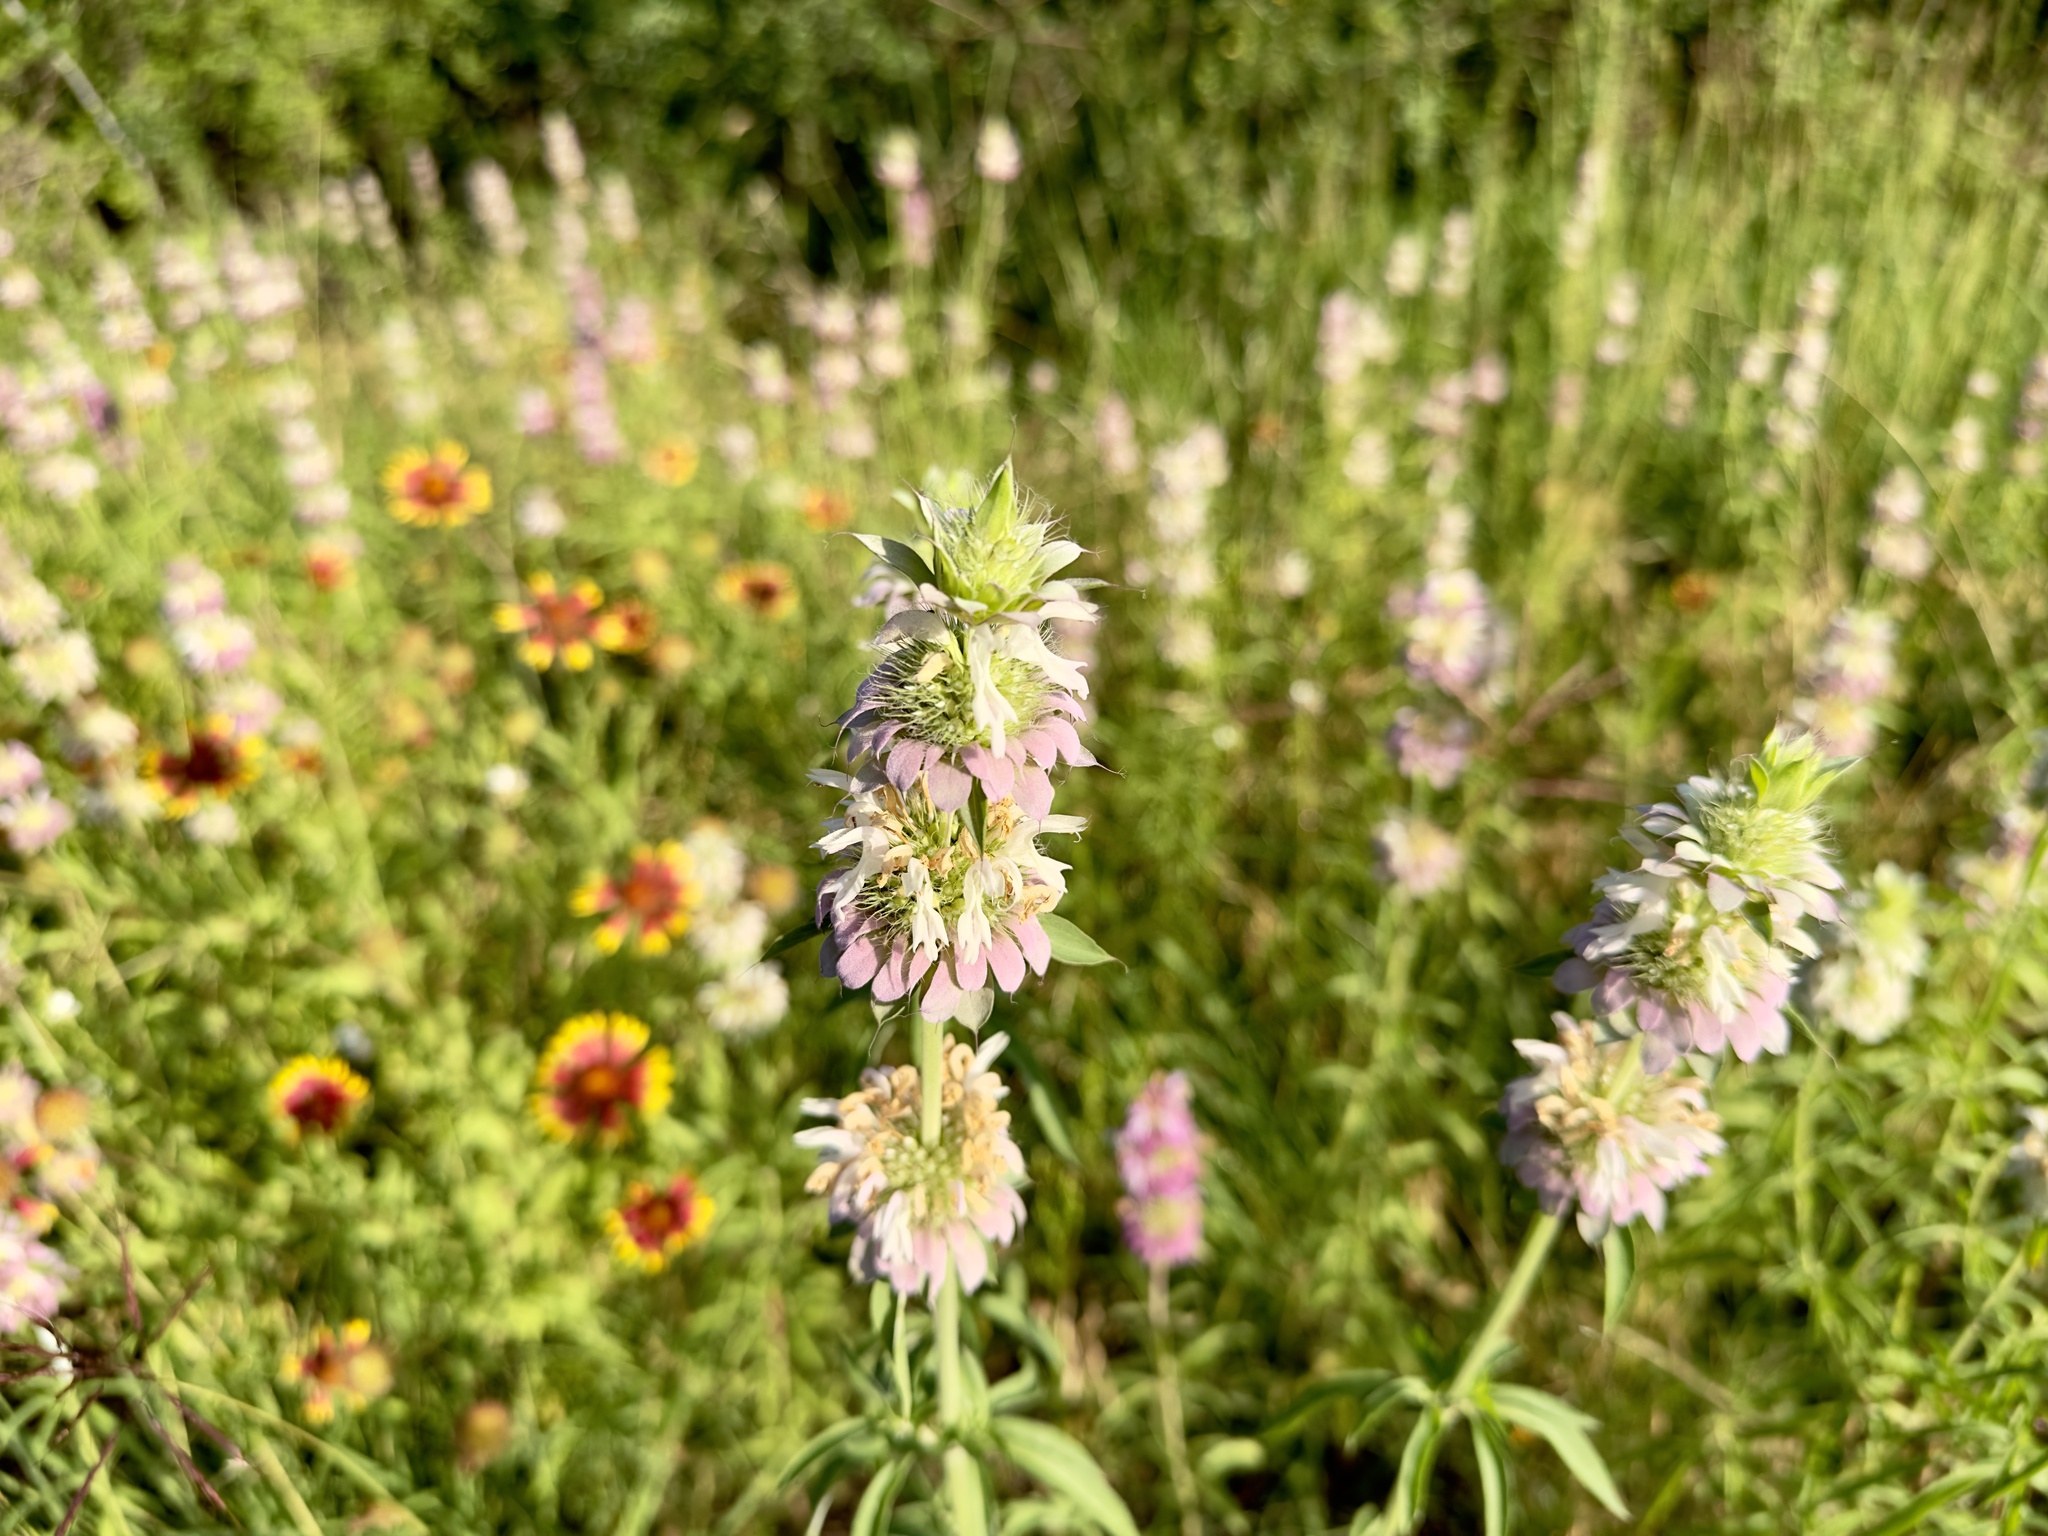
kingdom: Plantae
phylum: Tracheophyta
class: Magnoliopsida
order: Lamiales
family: Lamiaceae
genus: Monarda
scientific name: Monarda citriodora
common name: Lemon beebalm
